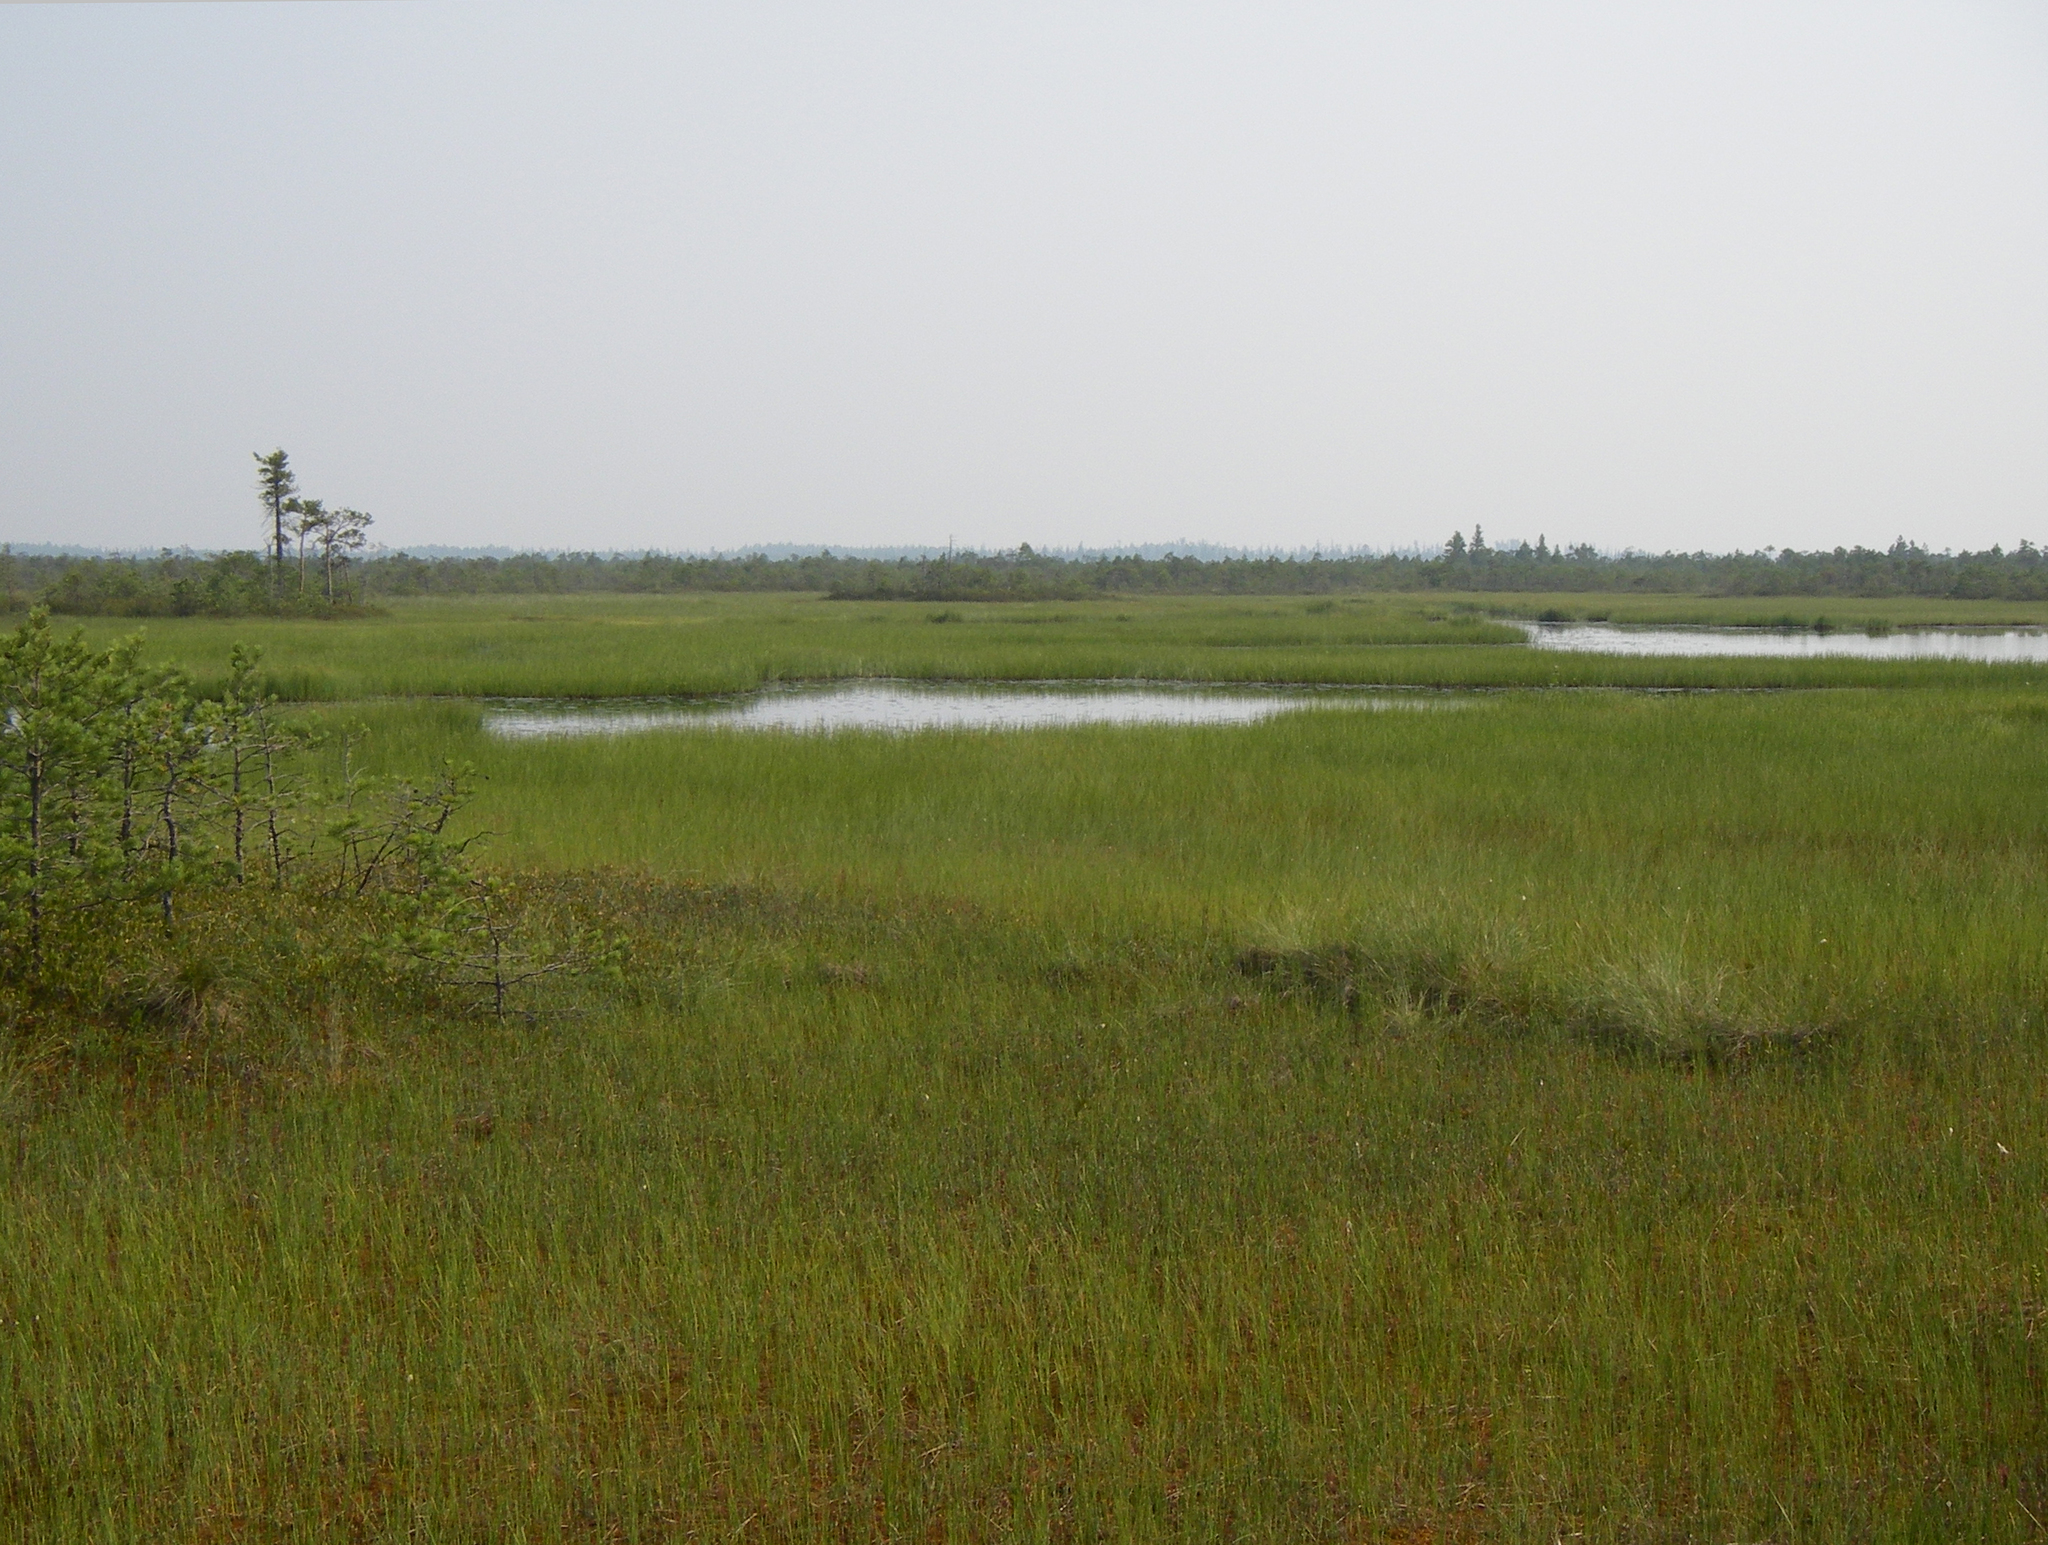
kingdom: Plantae
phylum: Tracheophyta
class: Pinopsida
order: Pinales
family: Pinaceae
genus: Pinus
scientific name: Pinus sibirica
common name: Siberian pine
